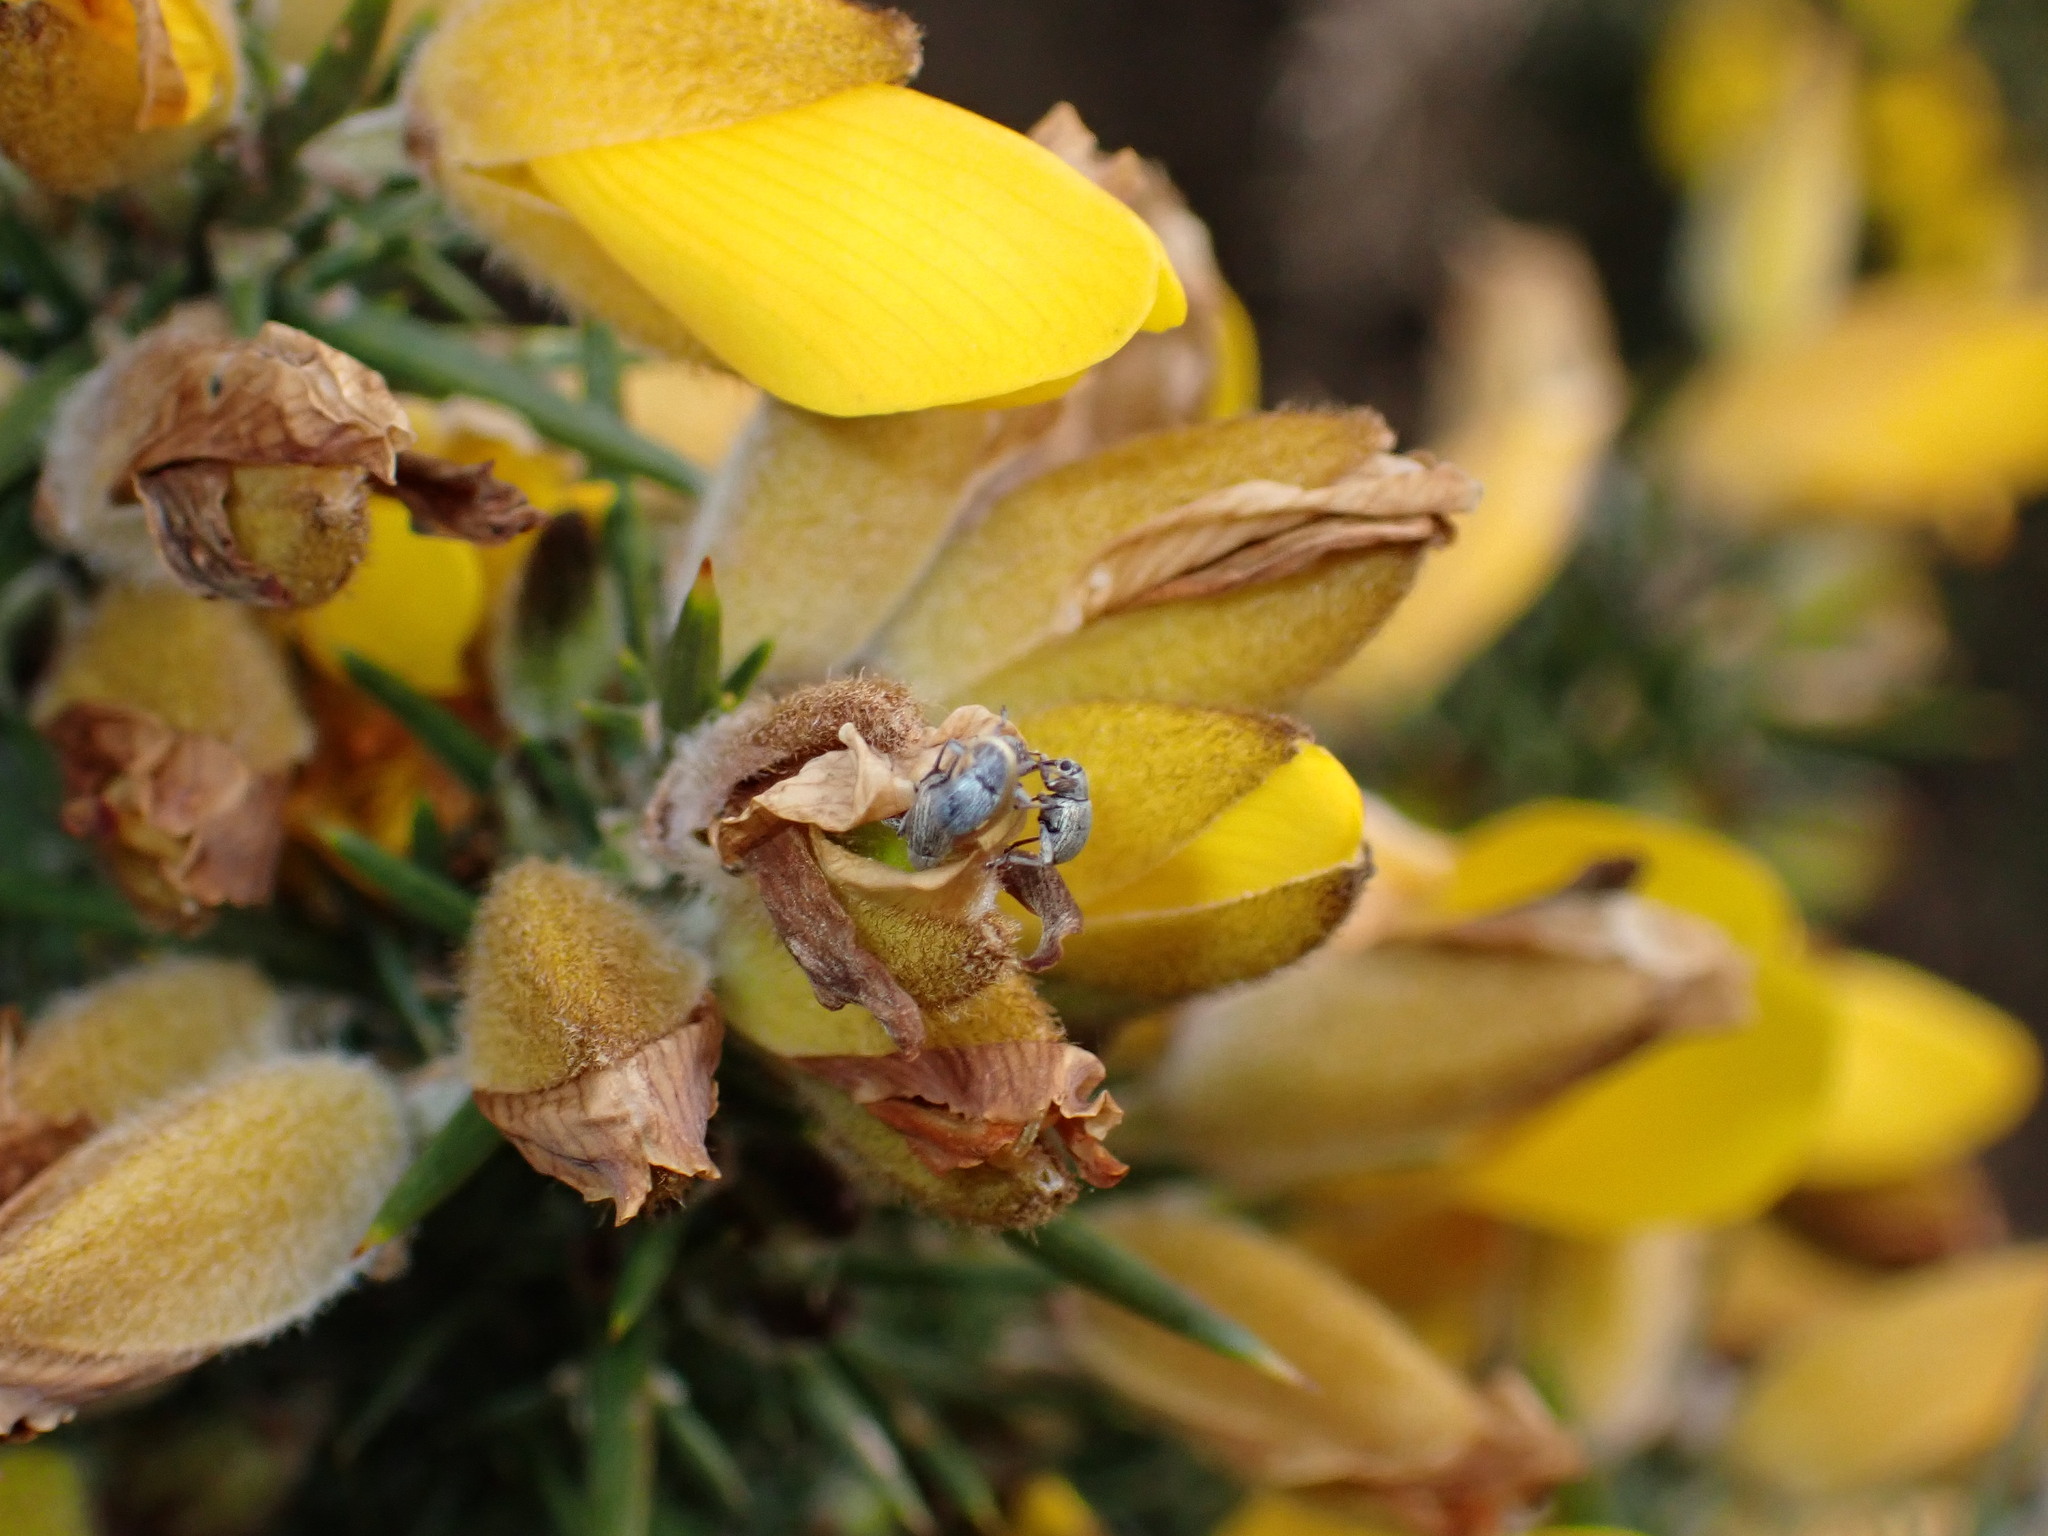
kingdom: Animalia
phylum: Arthropoda
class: Insecta
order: Coleoptera
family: Brentidae
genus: Exapion
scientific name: Exapion ulicis
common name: Gorse seed weevil
